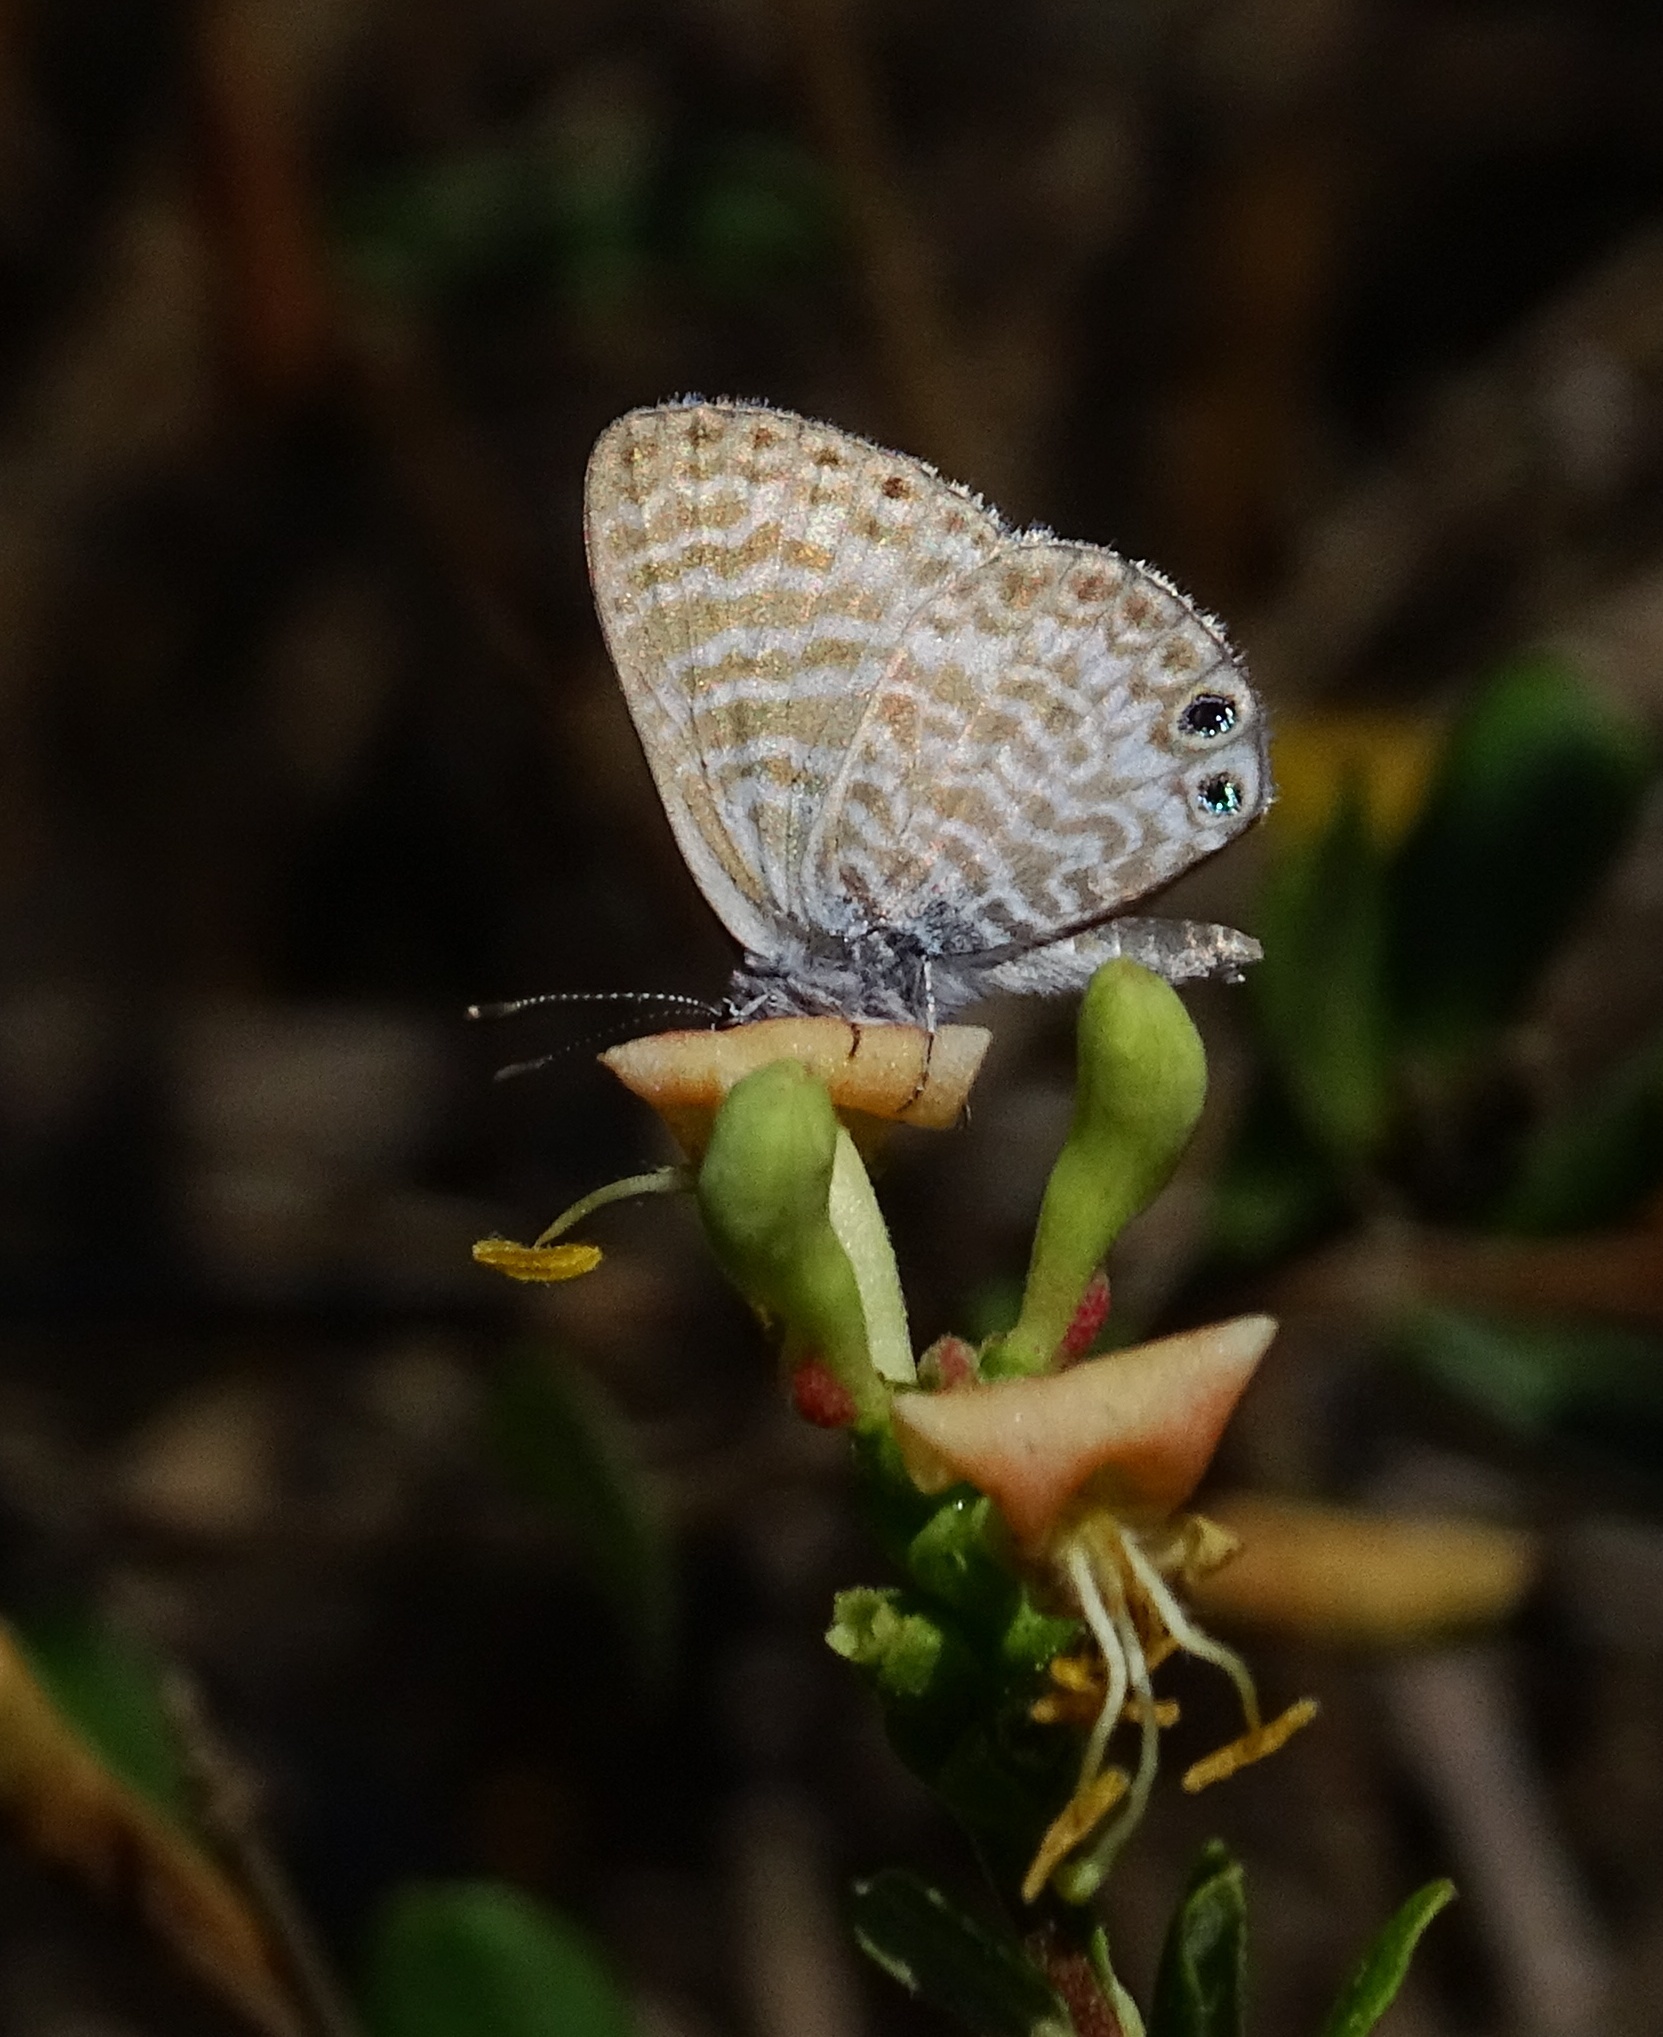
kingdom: Animalia
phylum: Arthropoda
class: Insecta
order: Lepidoptera
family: Lycaenidae
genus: Leptotes
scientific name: Leptotes marina
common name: Marine blue
